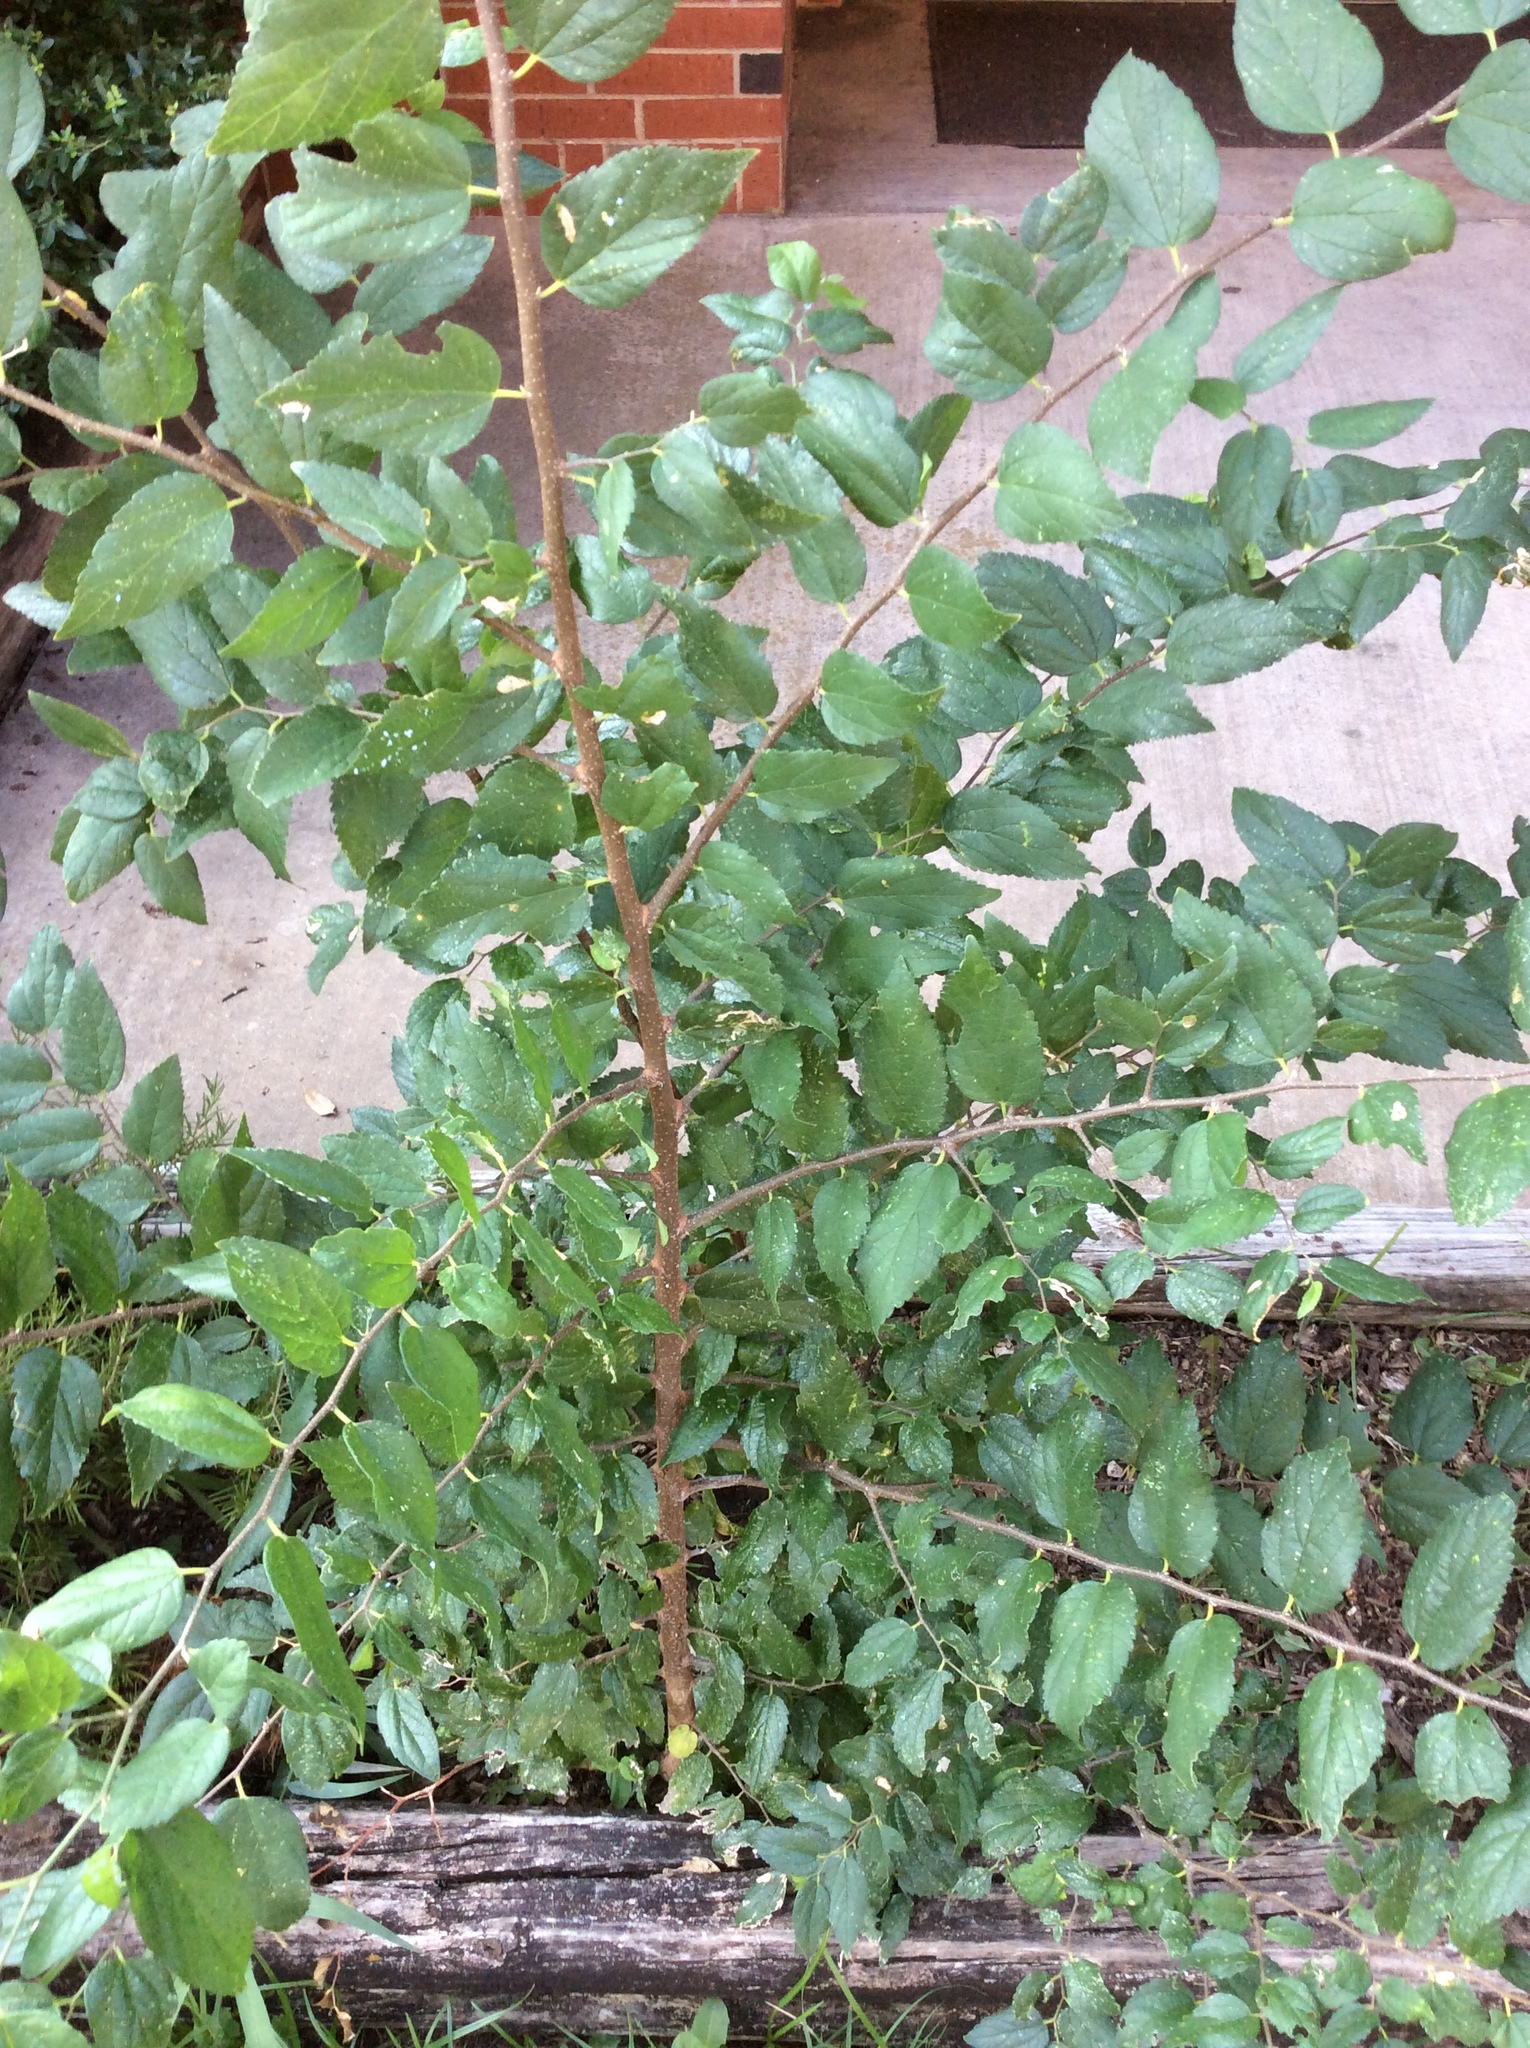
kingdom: Plantae
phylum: Tracheophyta
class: Magnoliopsida
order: Rosales
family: Cannabaceae
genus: Celtis
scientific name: Celtis laevigata
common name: Sugarberry
